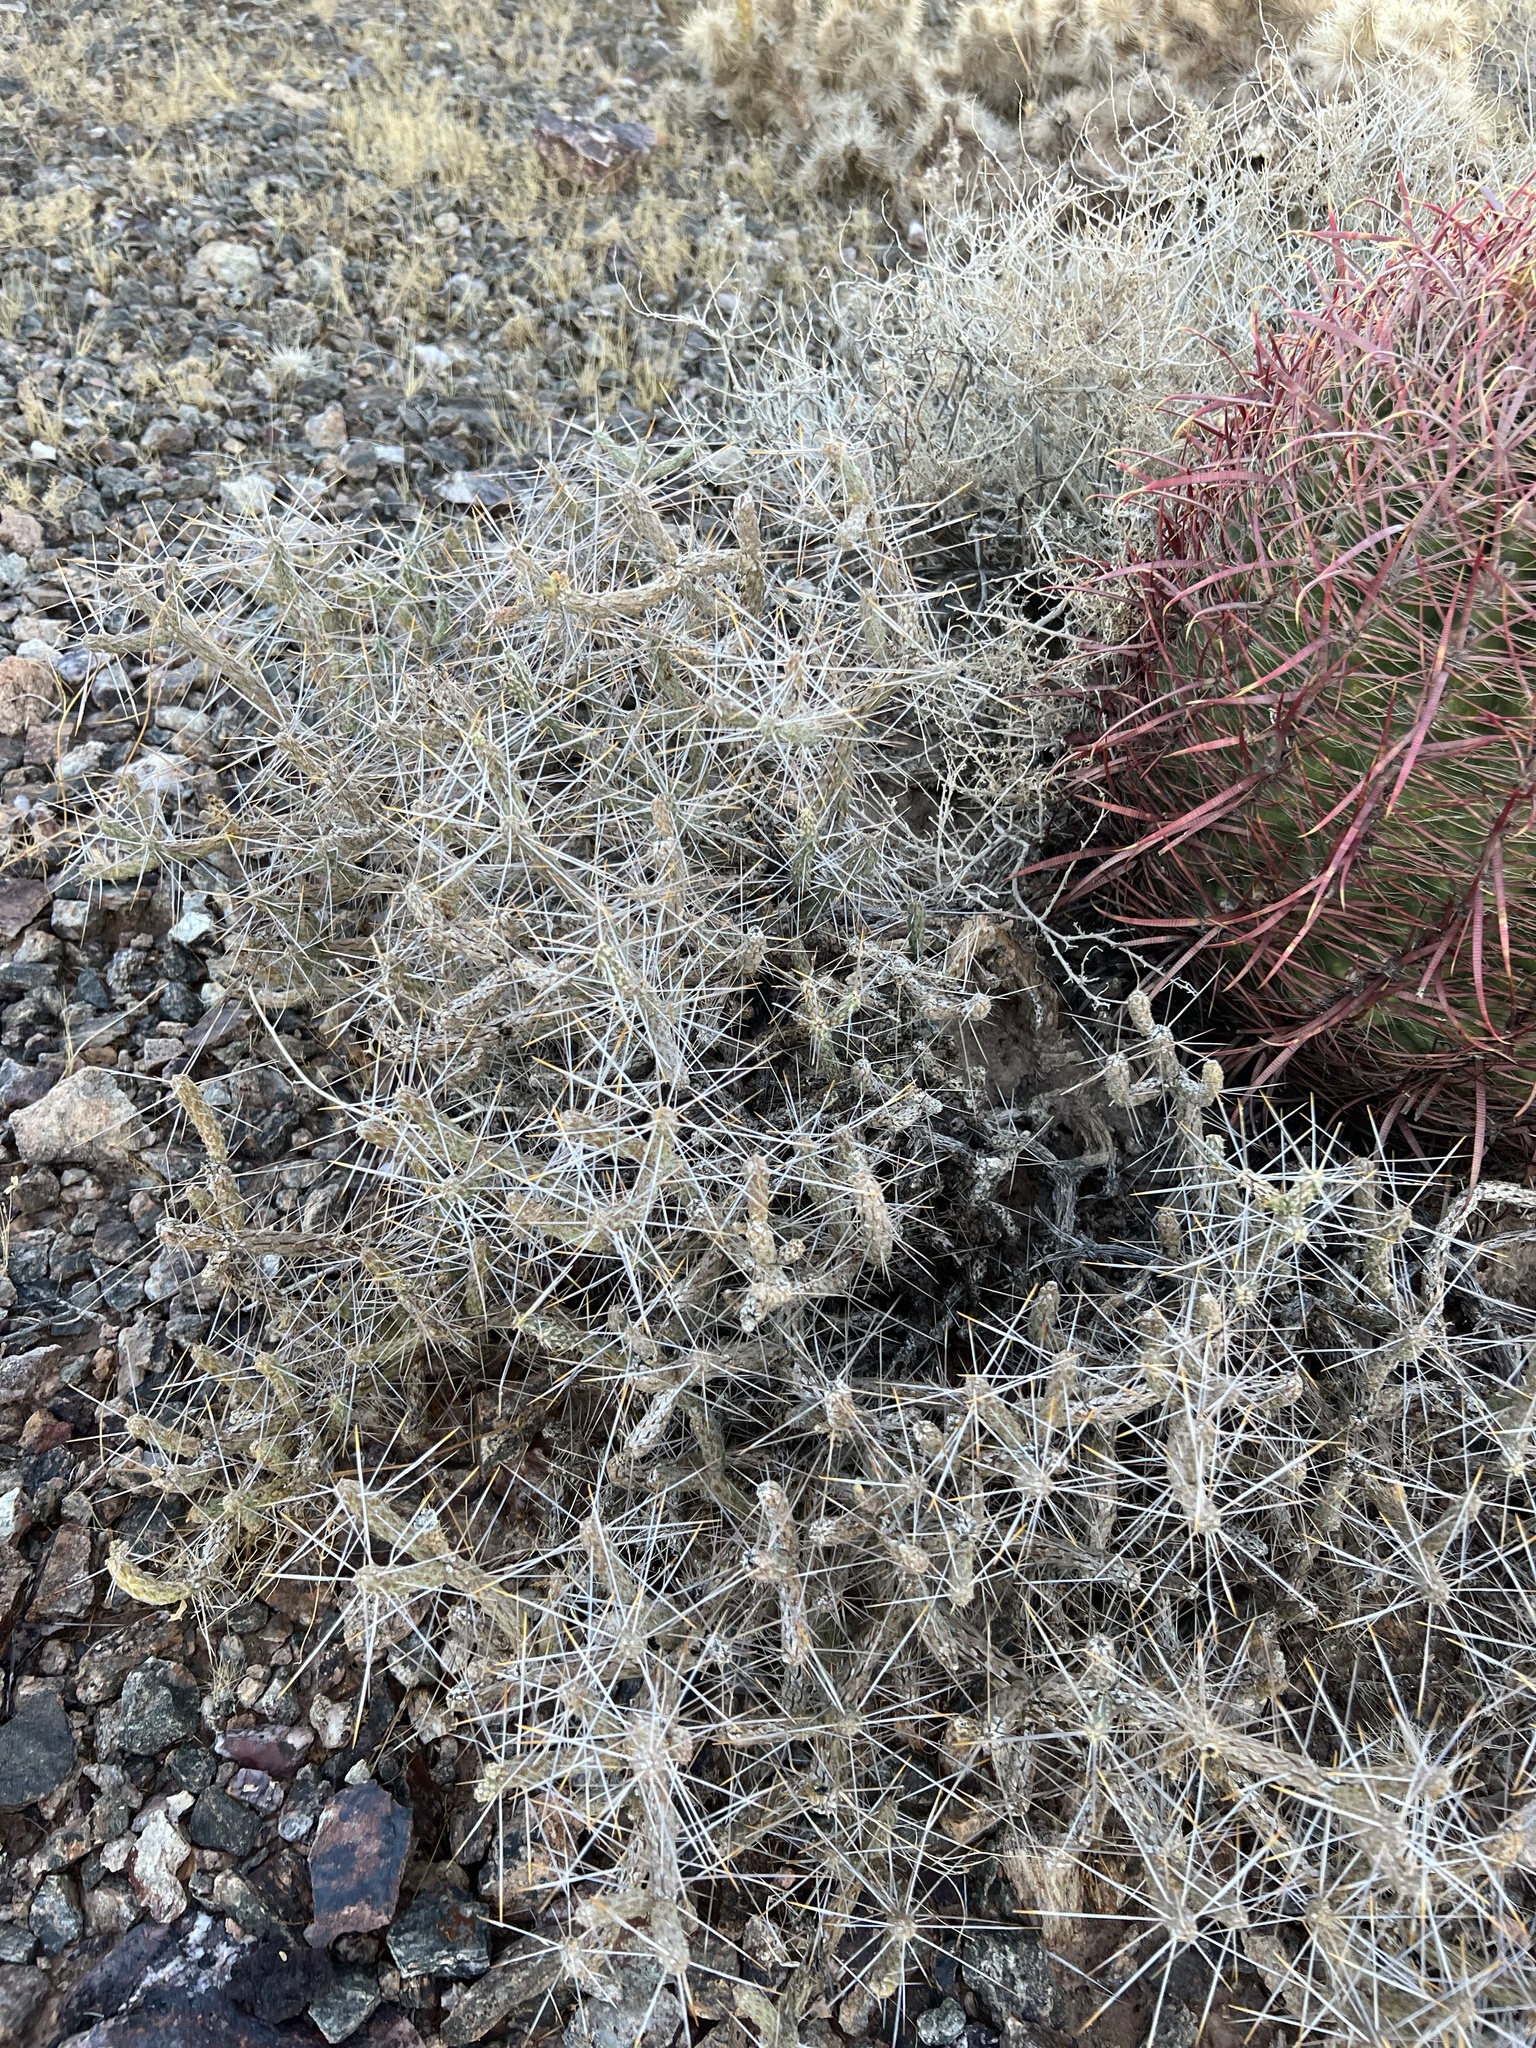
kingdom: Plantae
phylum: Tracheophyta
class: Magnoliopsida
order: Caryophyllales
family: Cactaceae
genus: Cylindropuntia
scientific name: Cylindropuntia ramosissima
